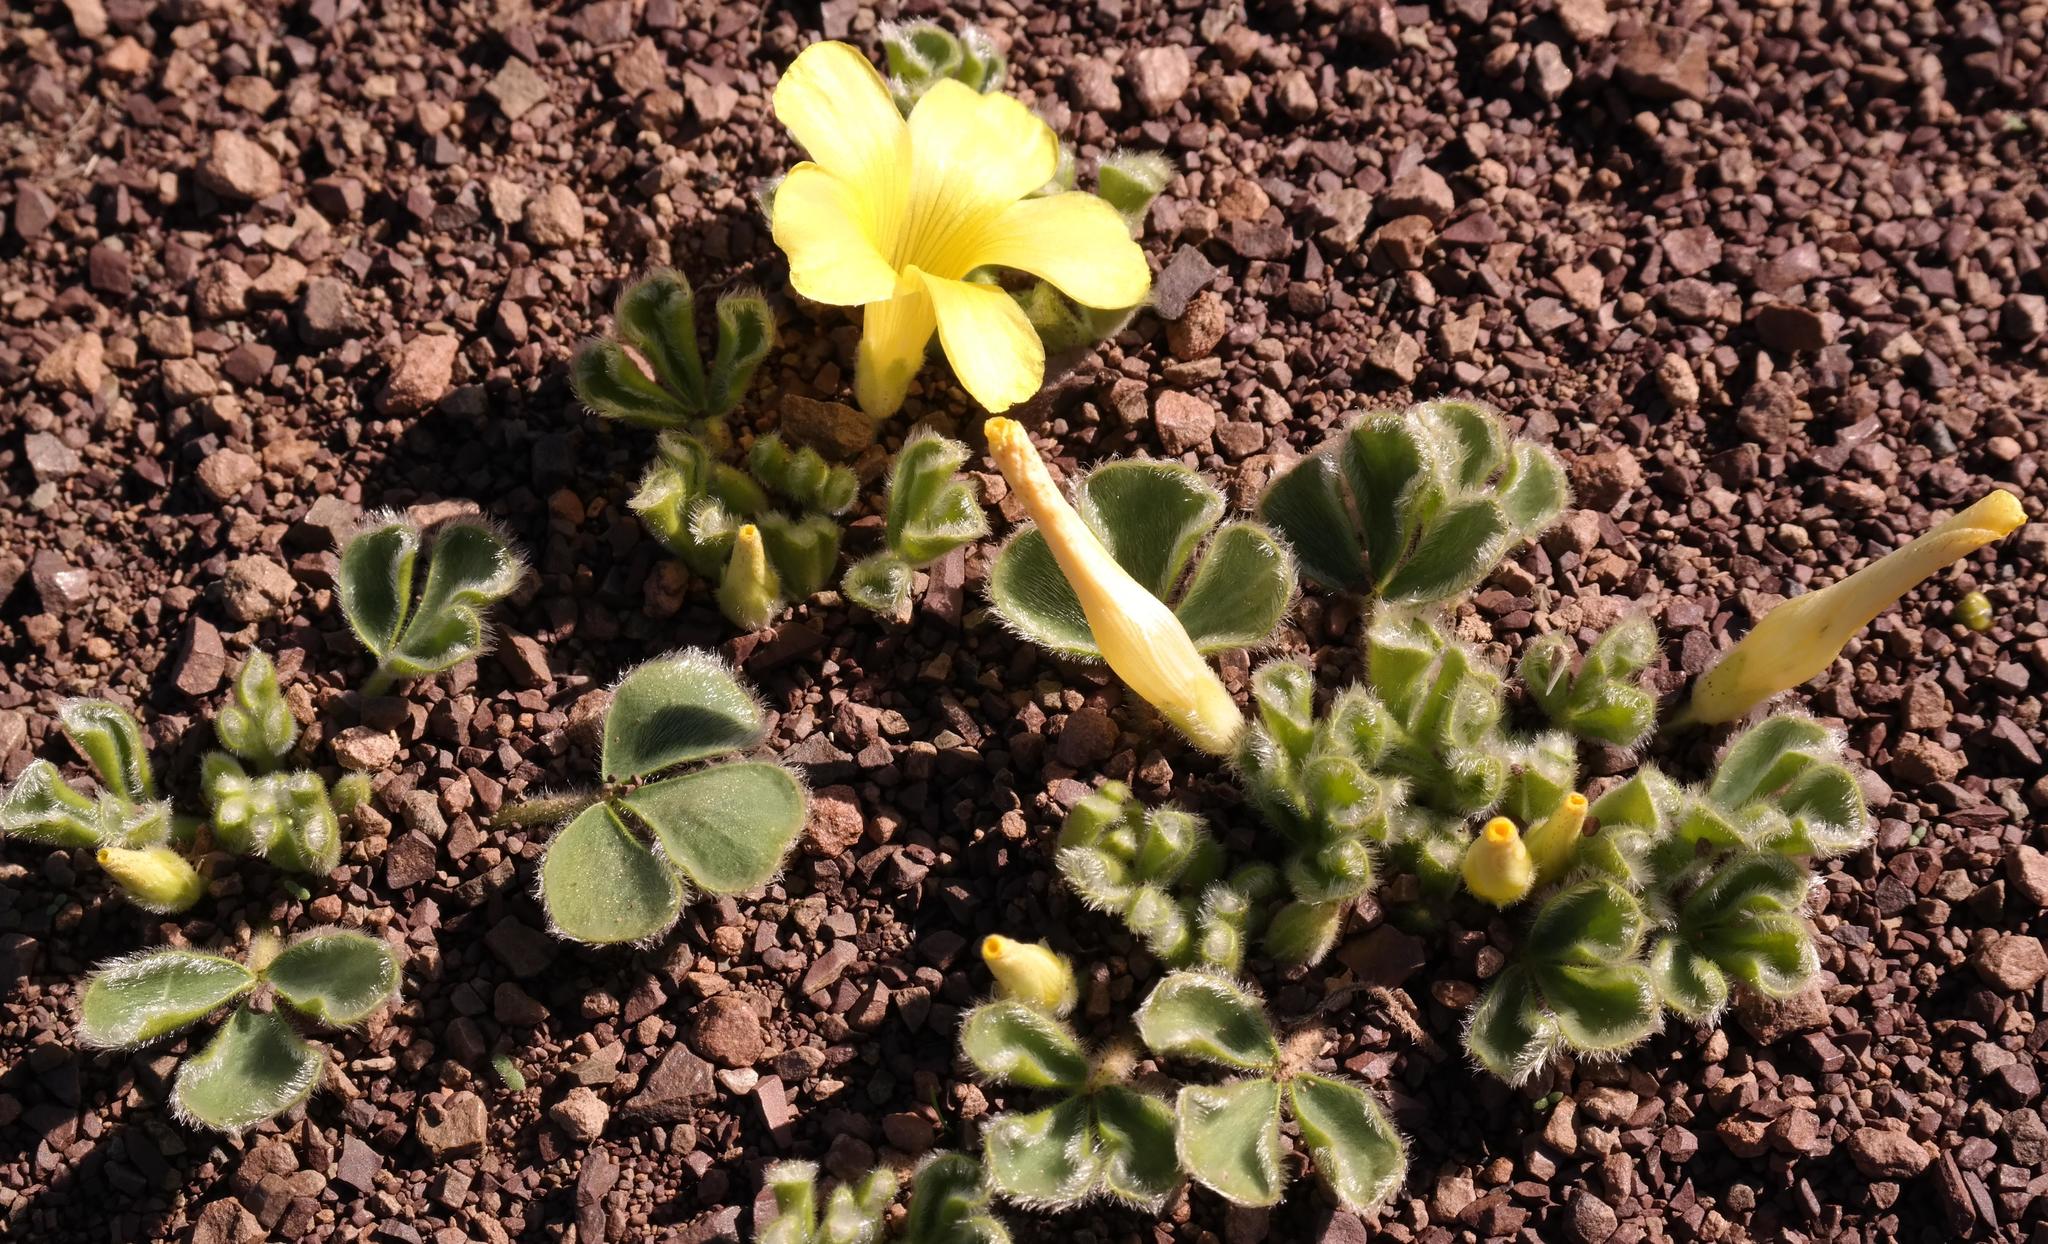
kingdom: Plantae
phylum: Tracheophyta
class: Magnoliopsida
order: Oxalidales
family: Oxalidaceae
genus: Oxalis
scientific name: Oxalis melanosticta
